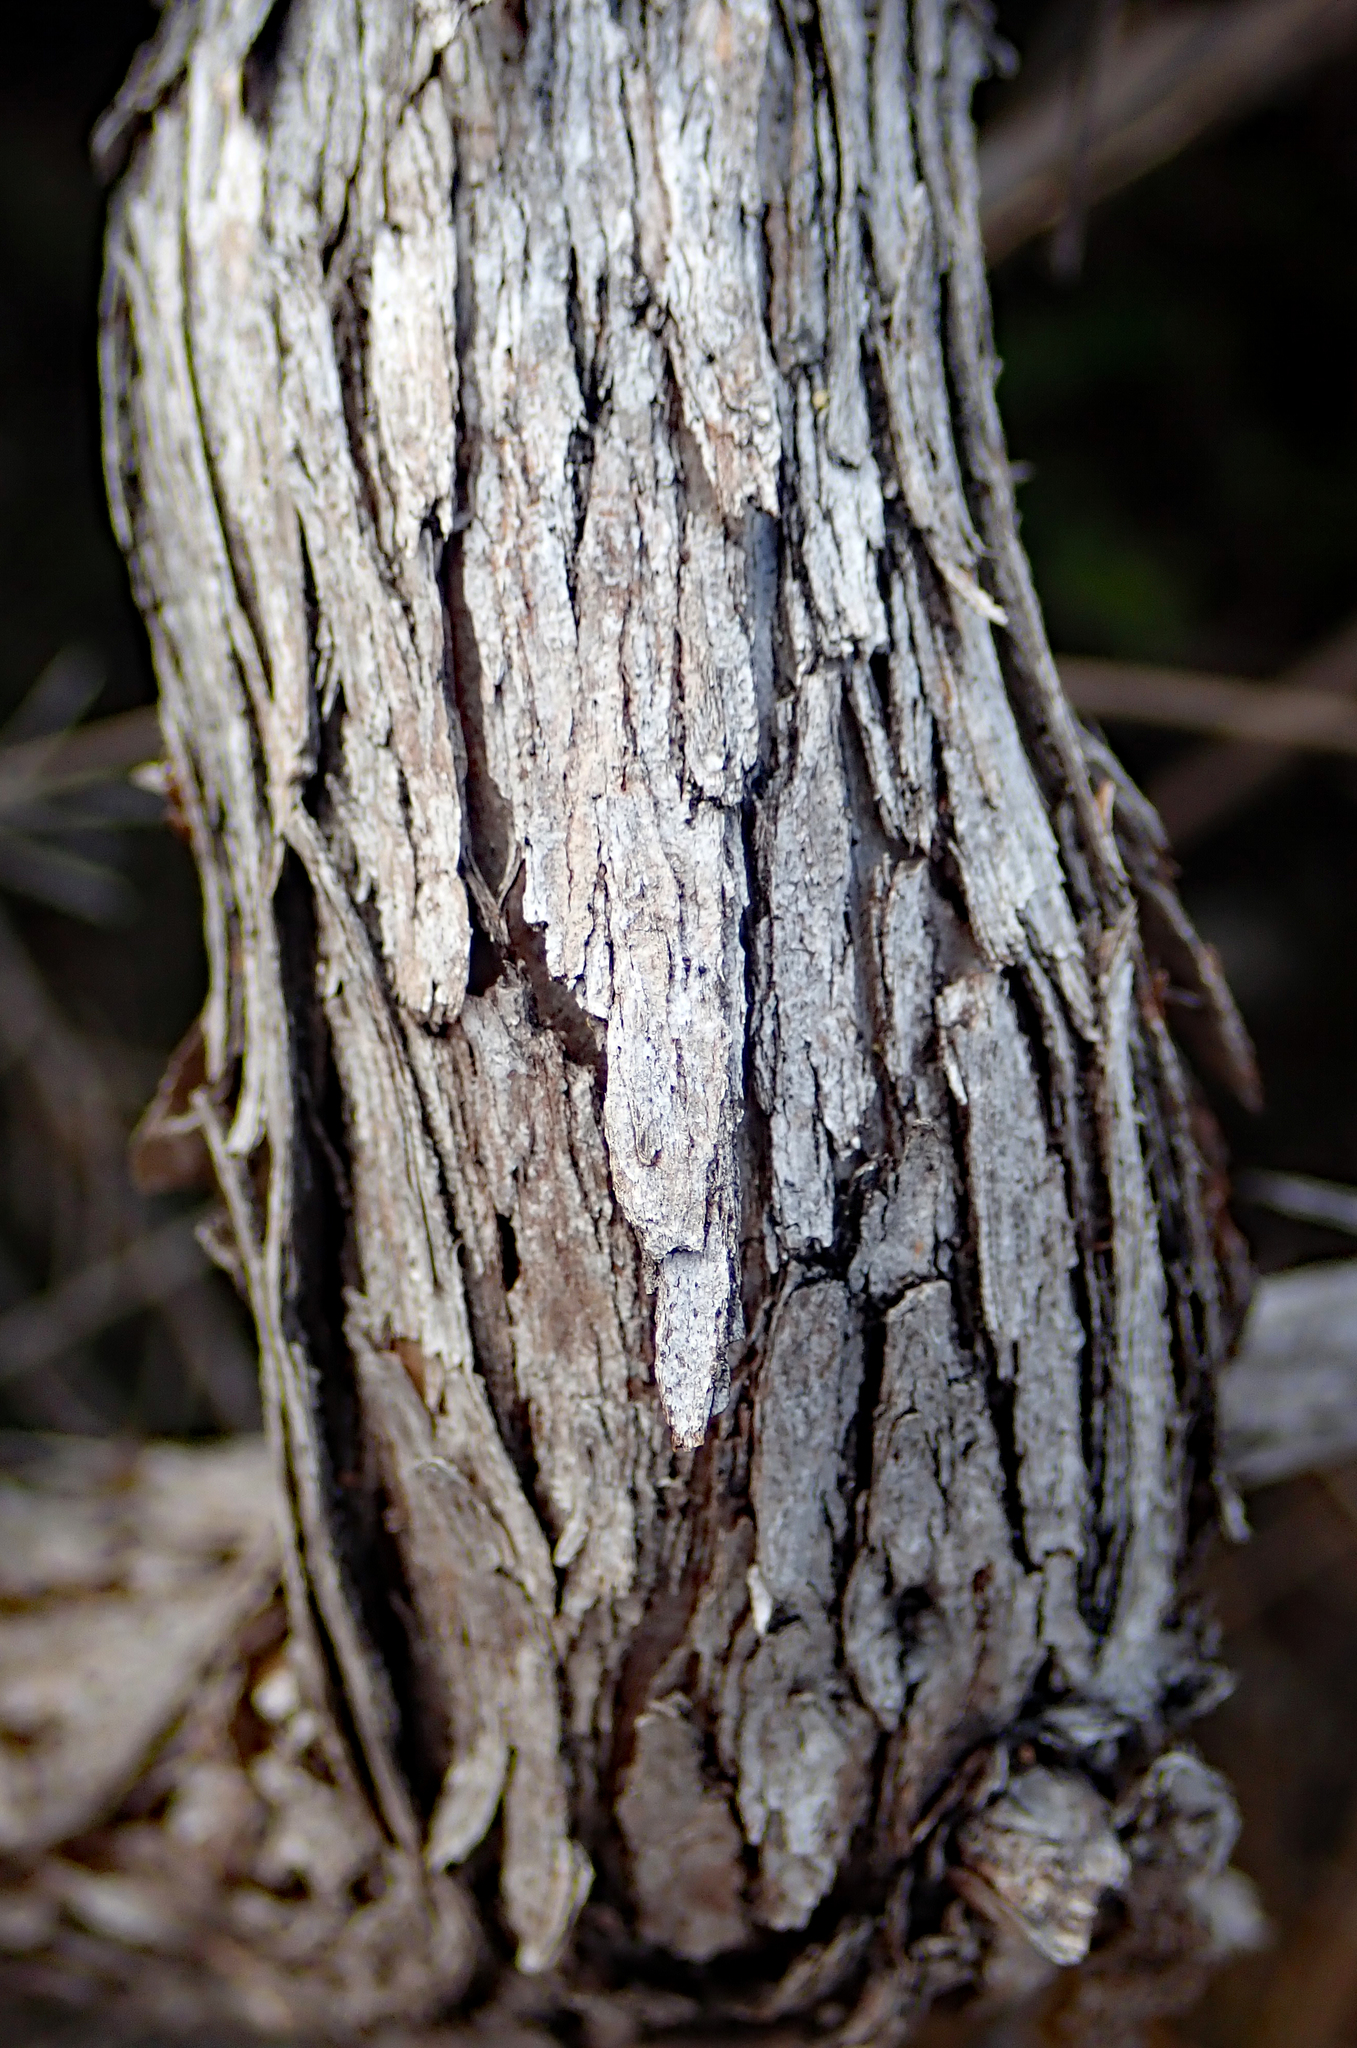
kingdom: Plantae
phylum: Tracheophyta
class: Magnoliopsida
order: Myrtales
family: Myrtaceae
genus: Leptospermum
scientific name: Leptospermum scoparium
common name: Broom tea-tree
